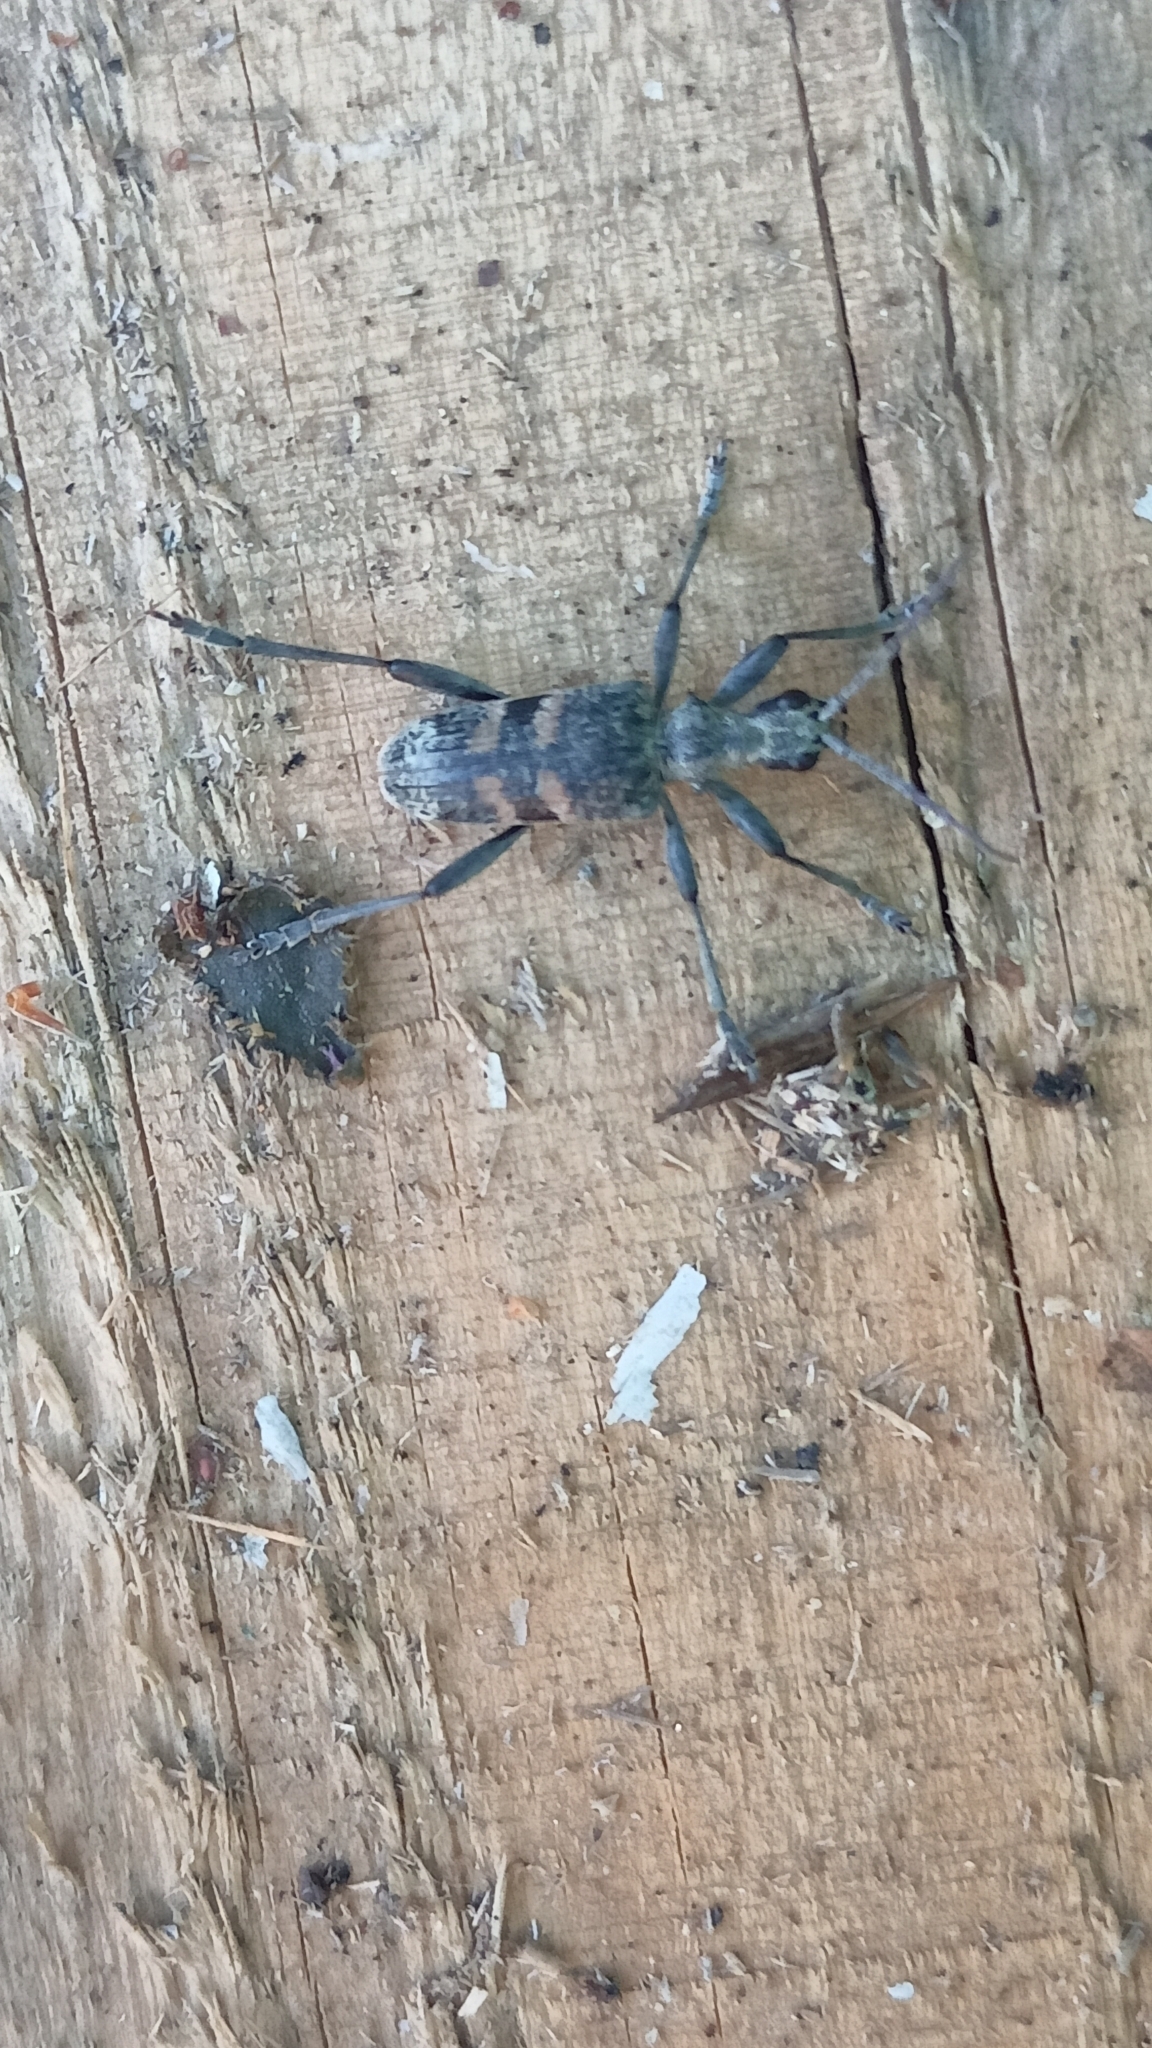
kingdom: Animalia
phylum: Arthropoda
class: Insecta
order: Coleoptera
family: Cerambycidae
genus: Rhagium
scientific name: Rhagium mordax
